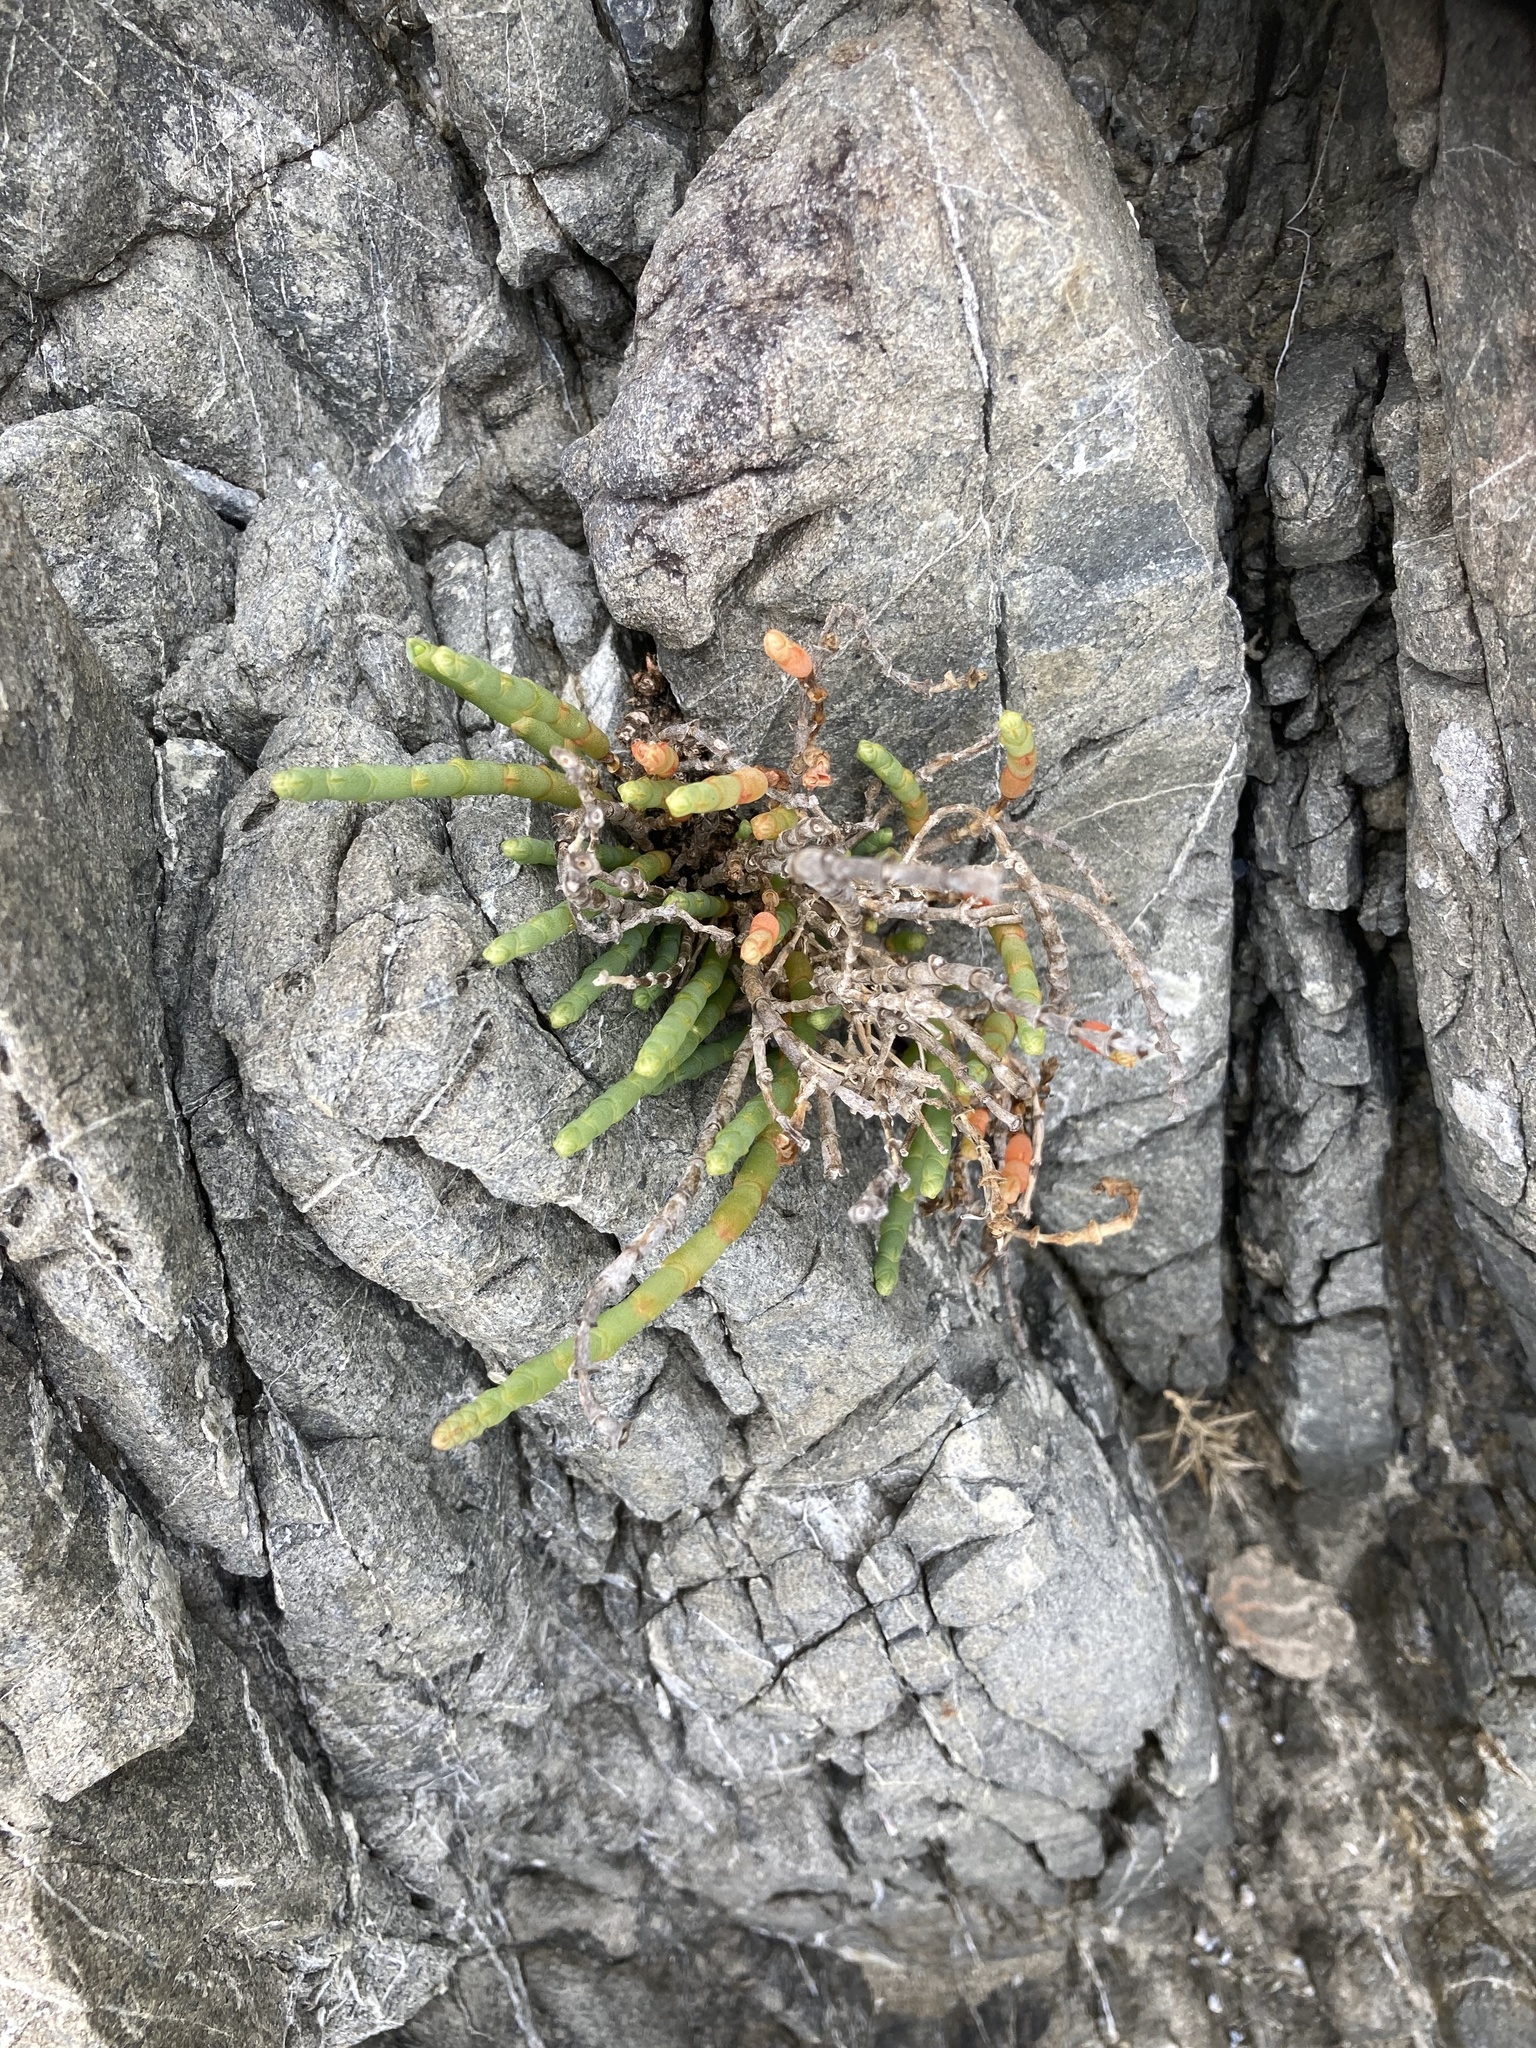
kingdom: Plantae
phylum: Tracheophyta
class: Magnoliopsida
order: Caryophyllales
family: Amaranthaceae
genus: Salicornia
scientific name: Salicornia quinqueflora
